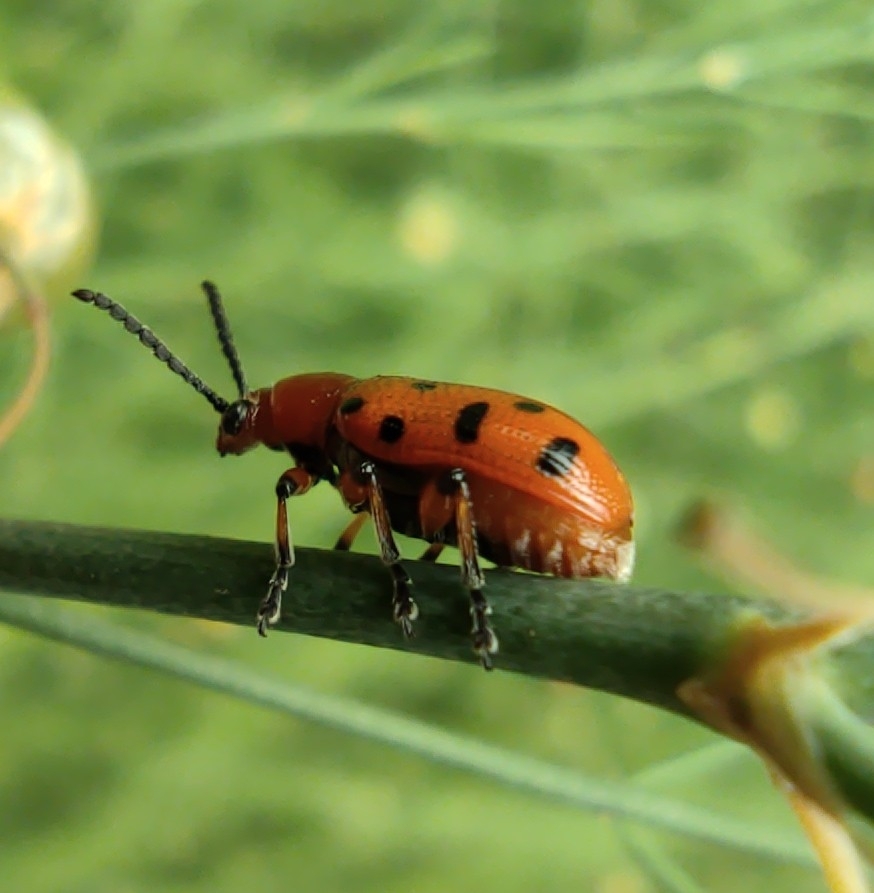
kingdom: Animalia
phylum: Arthropoda
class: Insecta
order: Coleoptera
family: Chrysomelidae
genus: Crioceris
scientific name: Crioceris duodecimpunctata
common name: Twelve-spotted asparagus beetle
